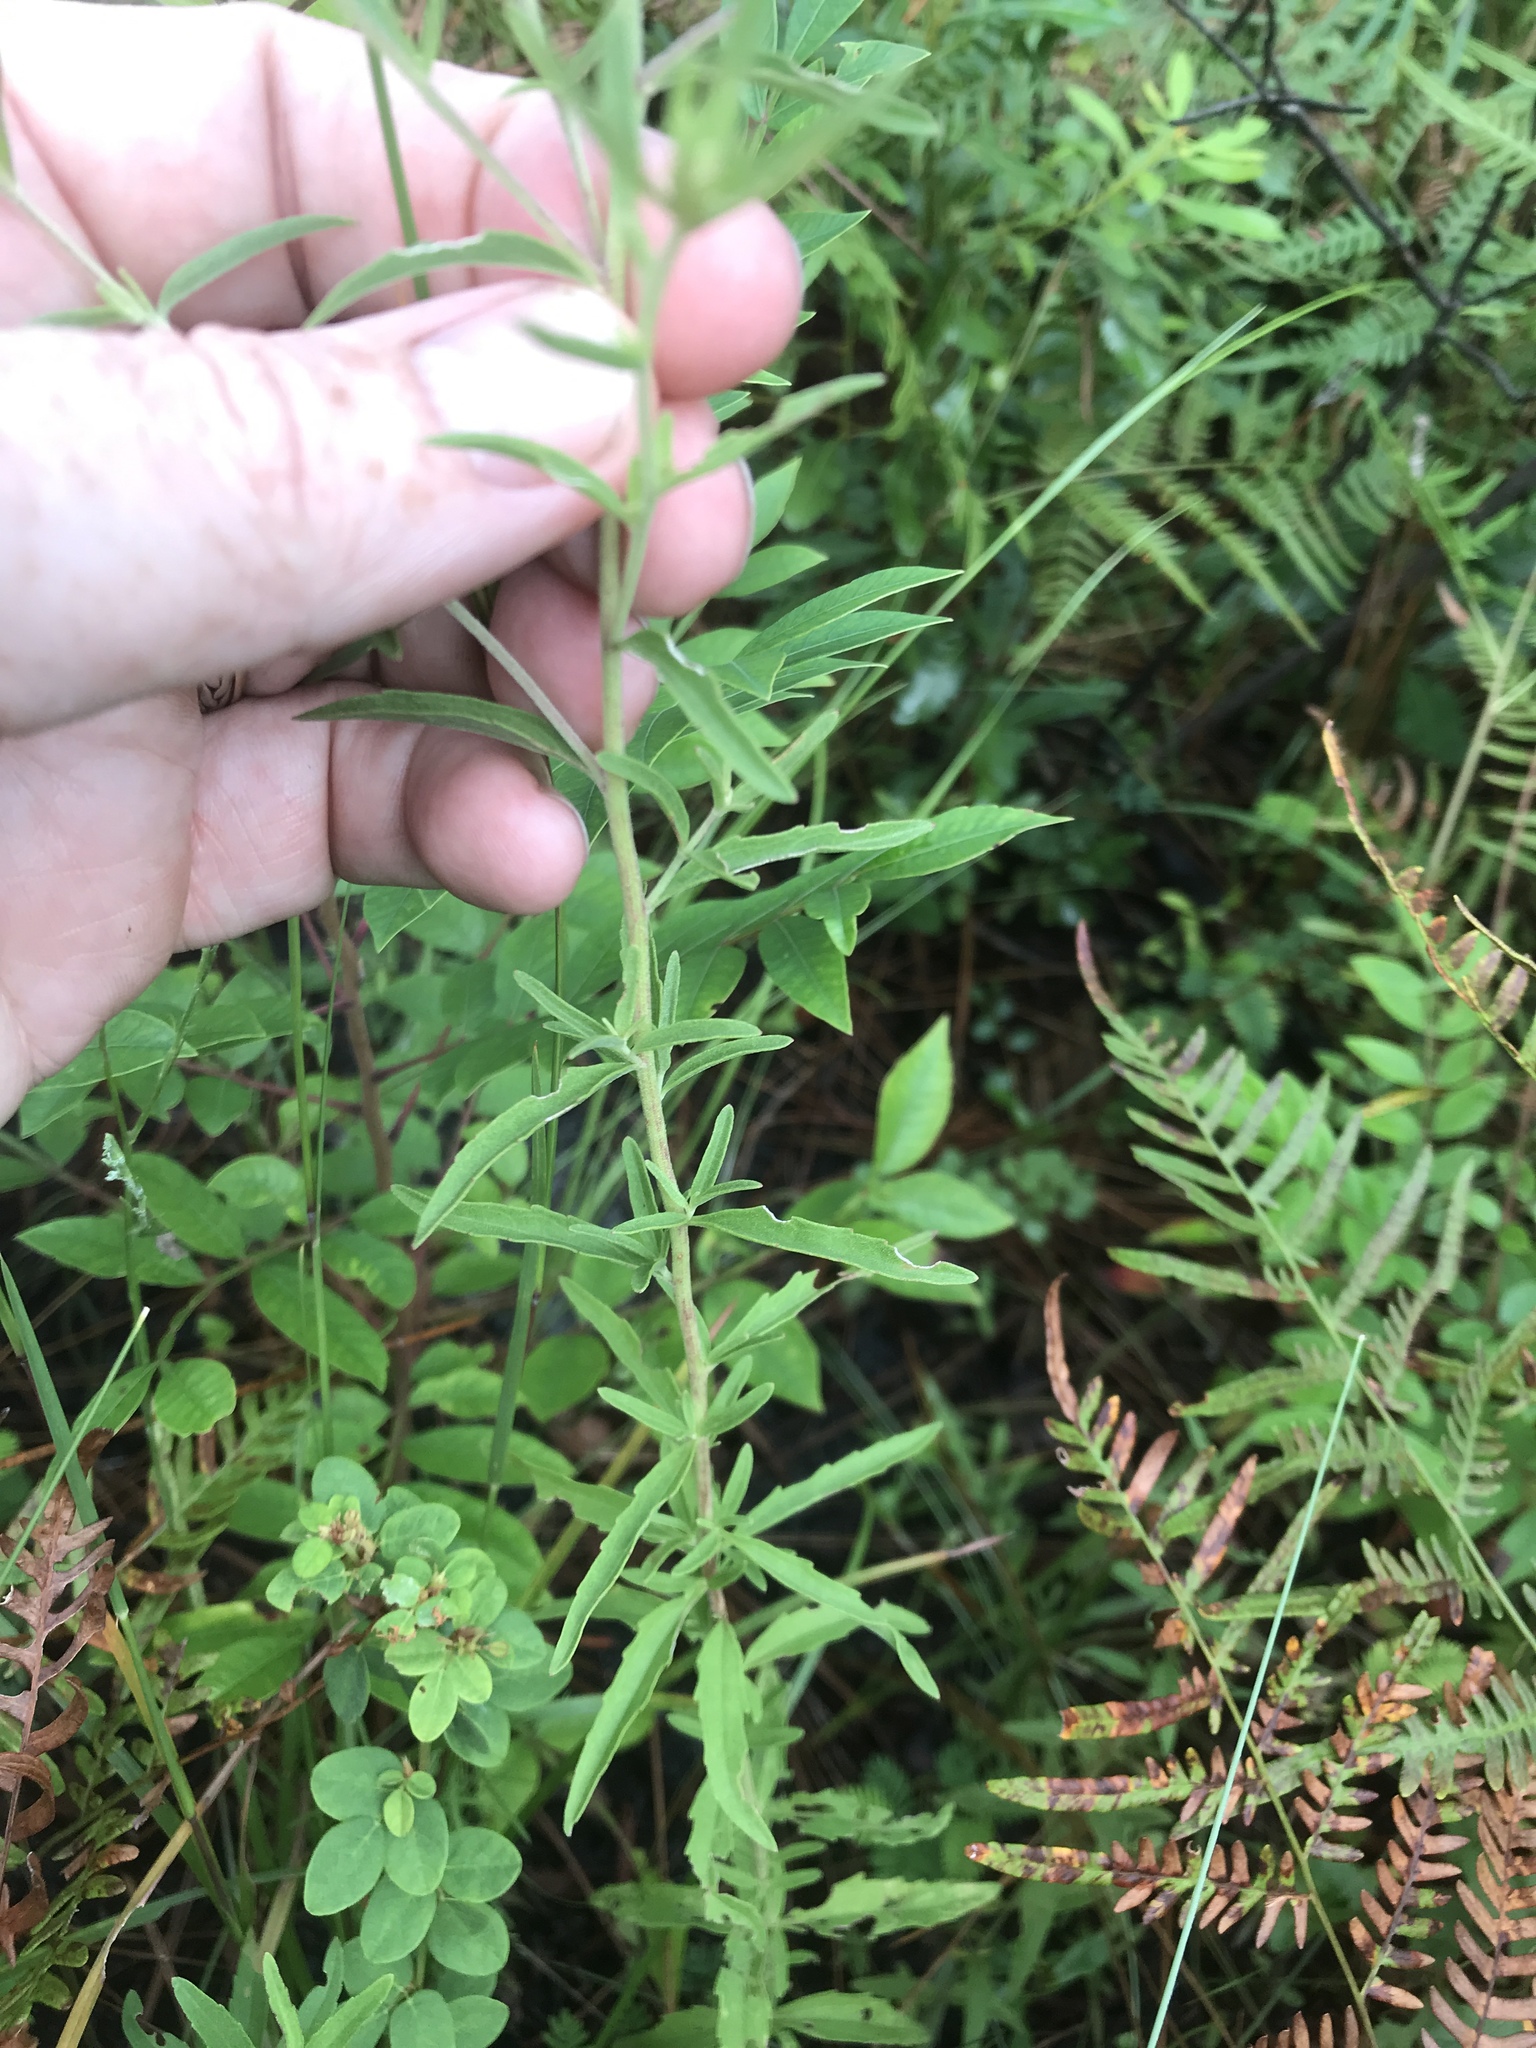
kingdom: Plantae
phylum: Tracheophyta
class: Magnoliopsida
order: Asterales
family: Asteraceae
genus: Eupatorium
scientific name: Eupatorium mohrii
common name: Mohr's thoroughwort
